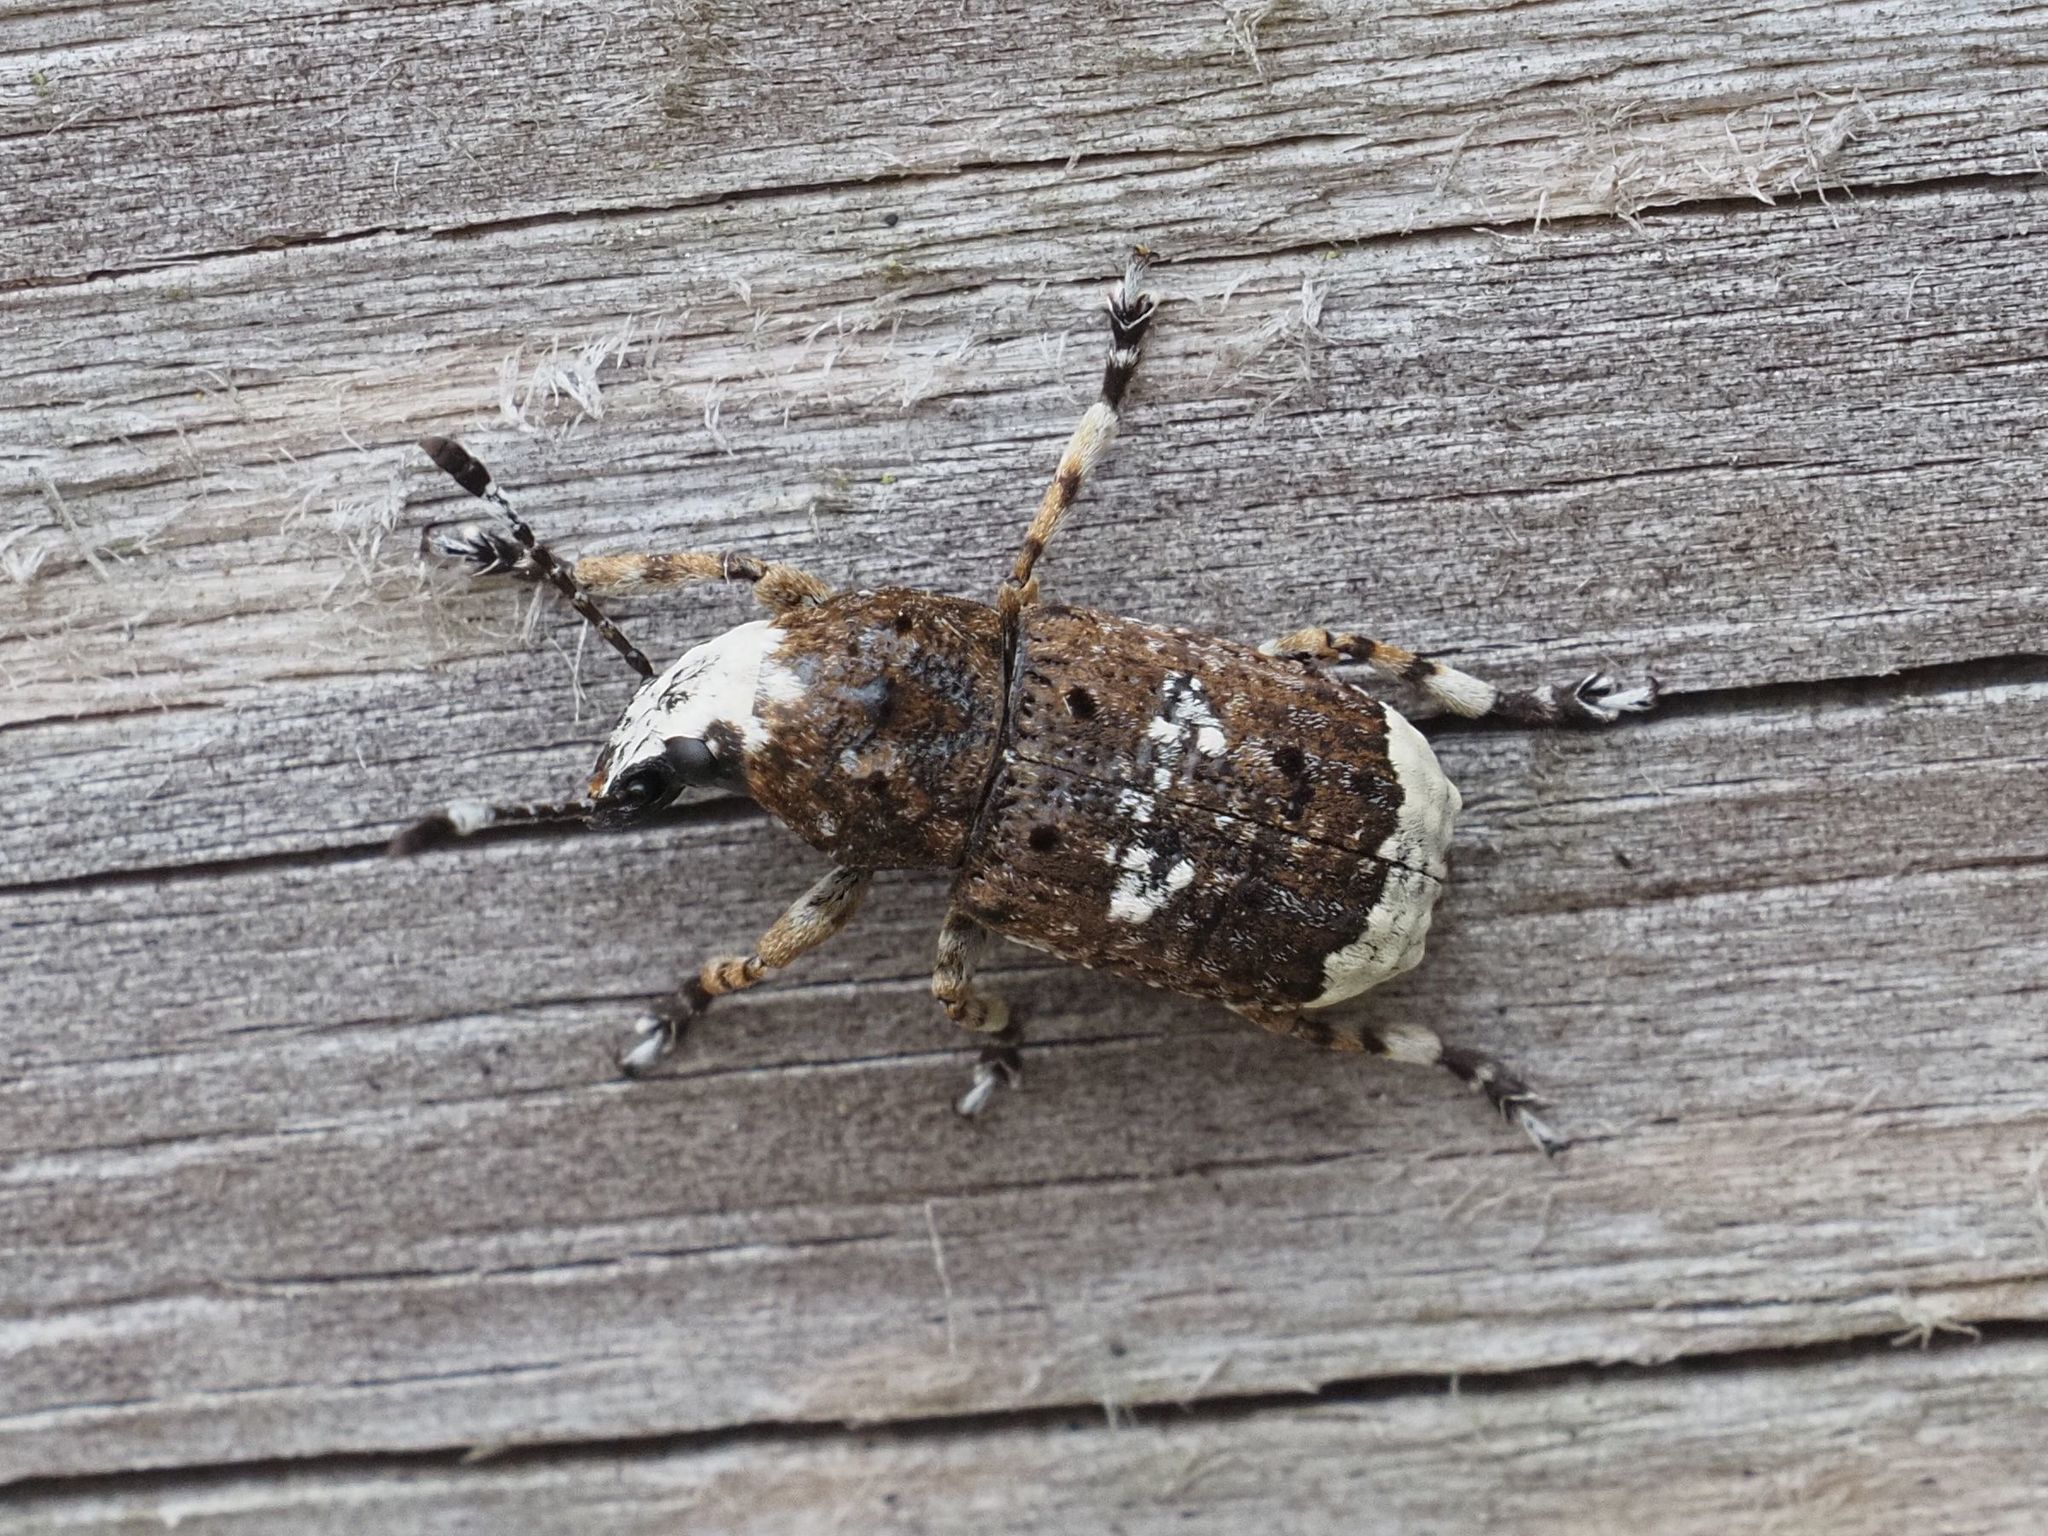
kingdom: Animalia
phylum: Arthropoda
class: Insecta
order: Coleoptera
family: Anthribidae
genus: Platystomos
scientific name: Platystomos albinus
